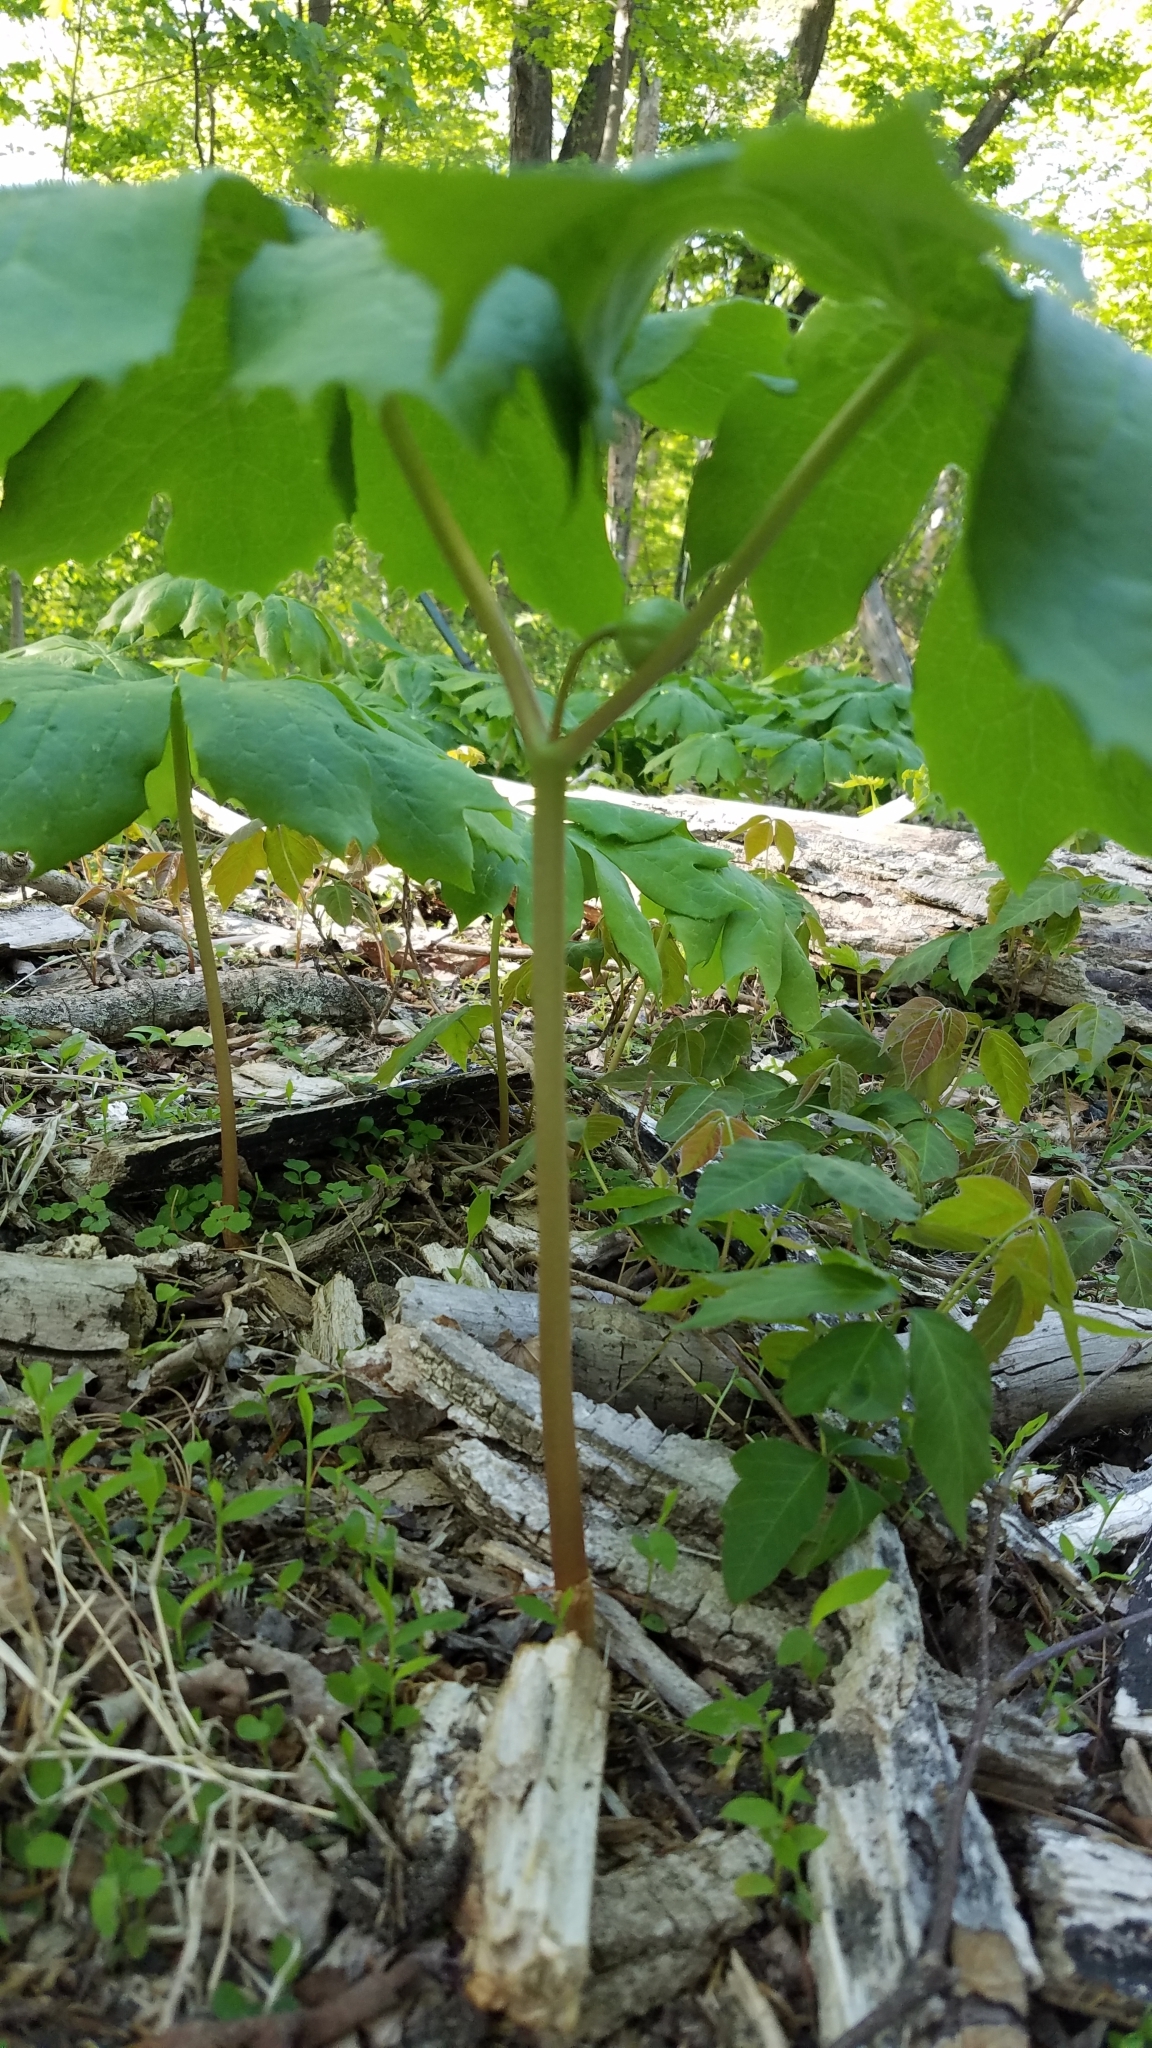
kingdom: Plantae
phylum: Tracheophyta
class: Magnoliopsida
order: Ranunculales
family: Berberidaceae
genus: Podophyllum
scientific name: Podophyllum peltatum
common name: Wild mandrake
